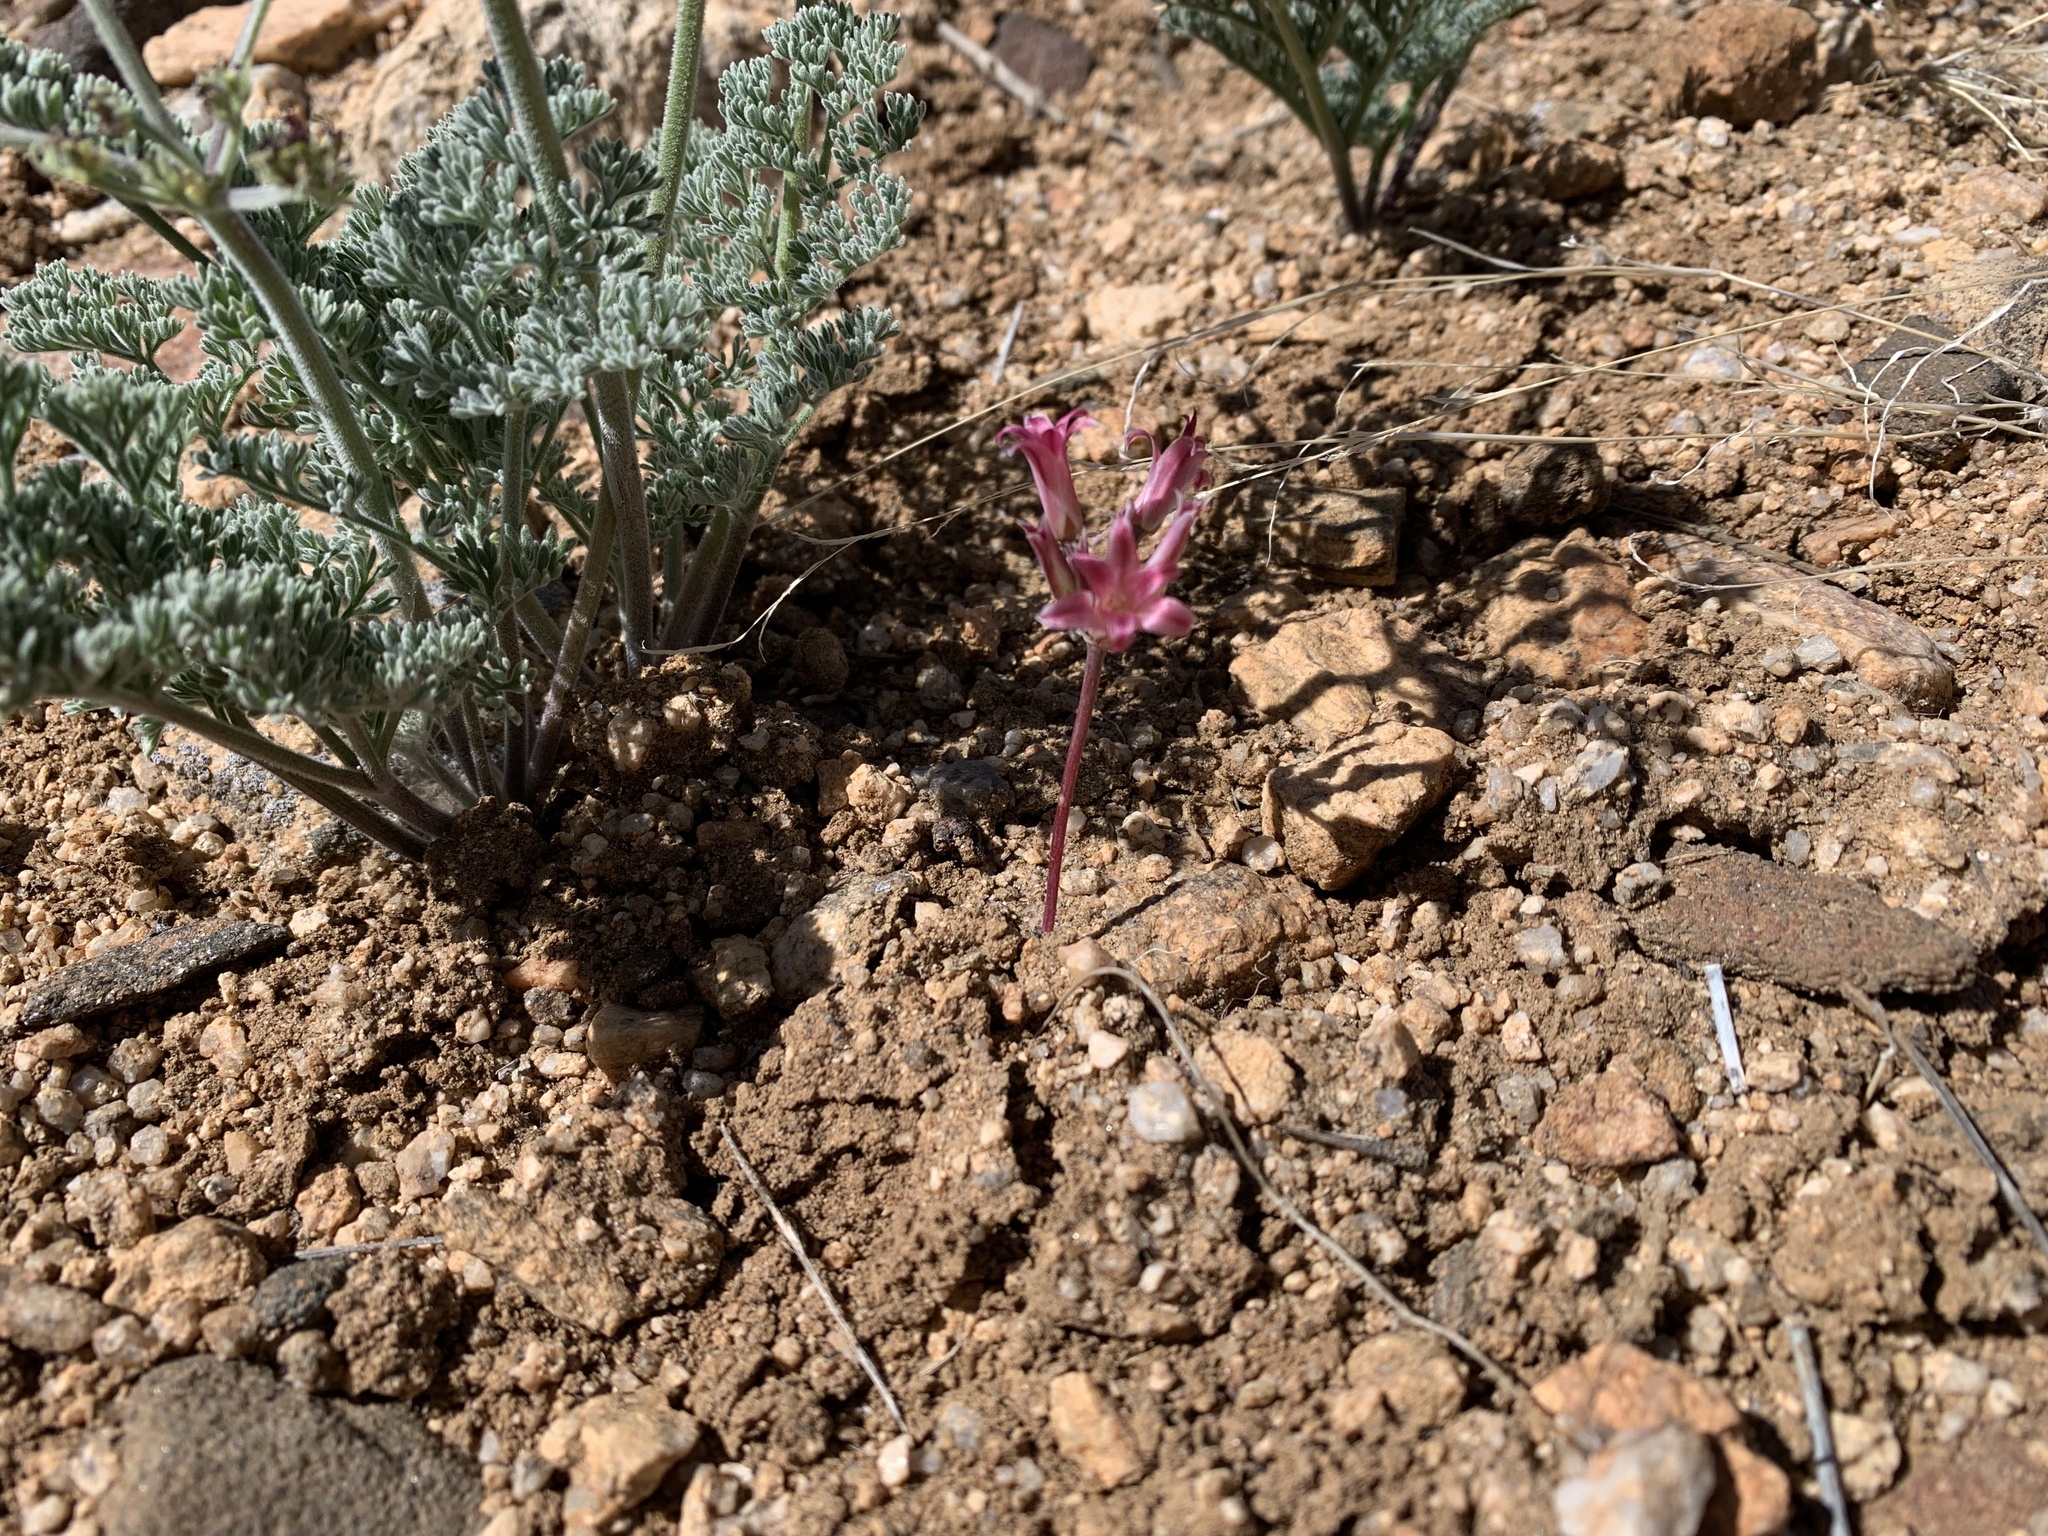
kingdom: Plantae
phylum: Tracheophyta
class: Liliopsida
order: Asparagales
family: Amaryllidaceae
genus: Allium
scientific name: Allium parishii
